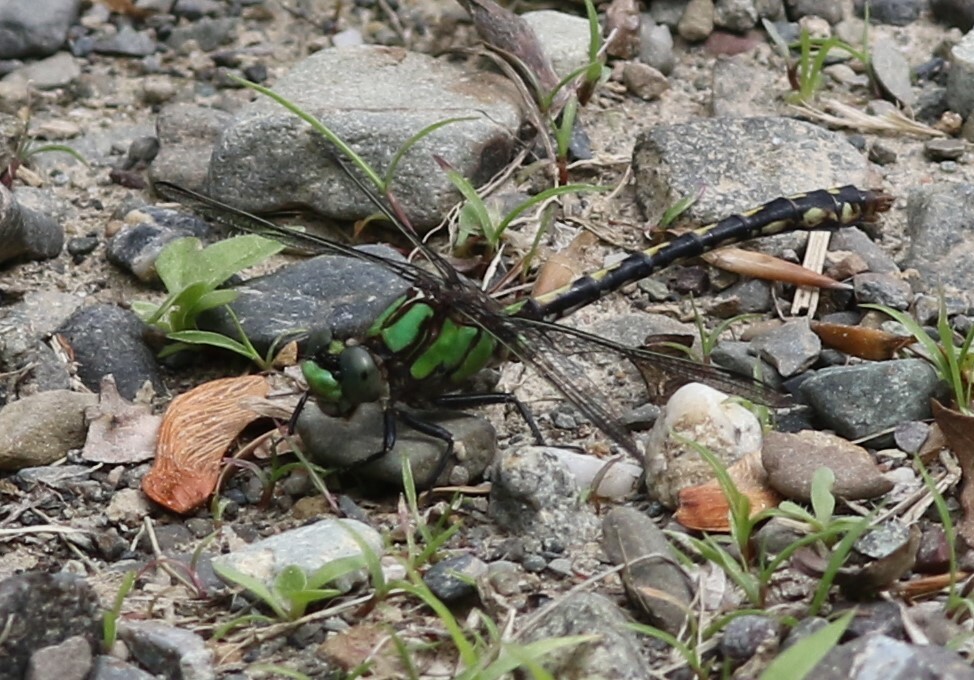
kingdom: Animalia
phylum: Arthropoda
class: Insecta
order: Odonata
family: Gomphidae
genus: Ophiogomphus
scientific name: Ophiogomphus carolus
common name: Riffle snaketail
